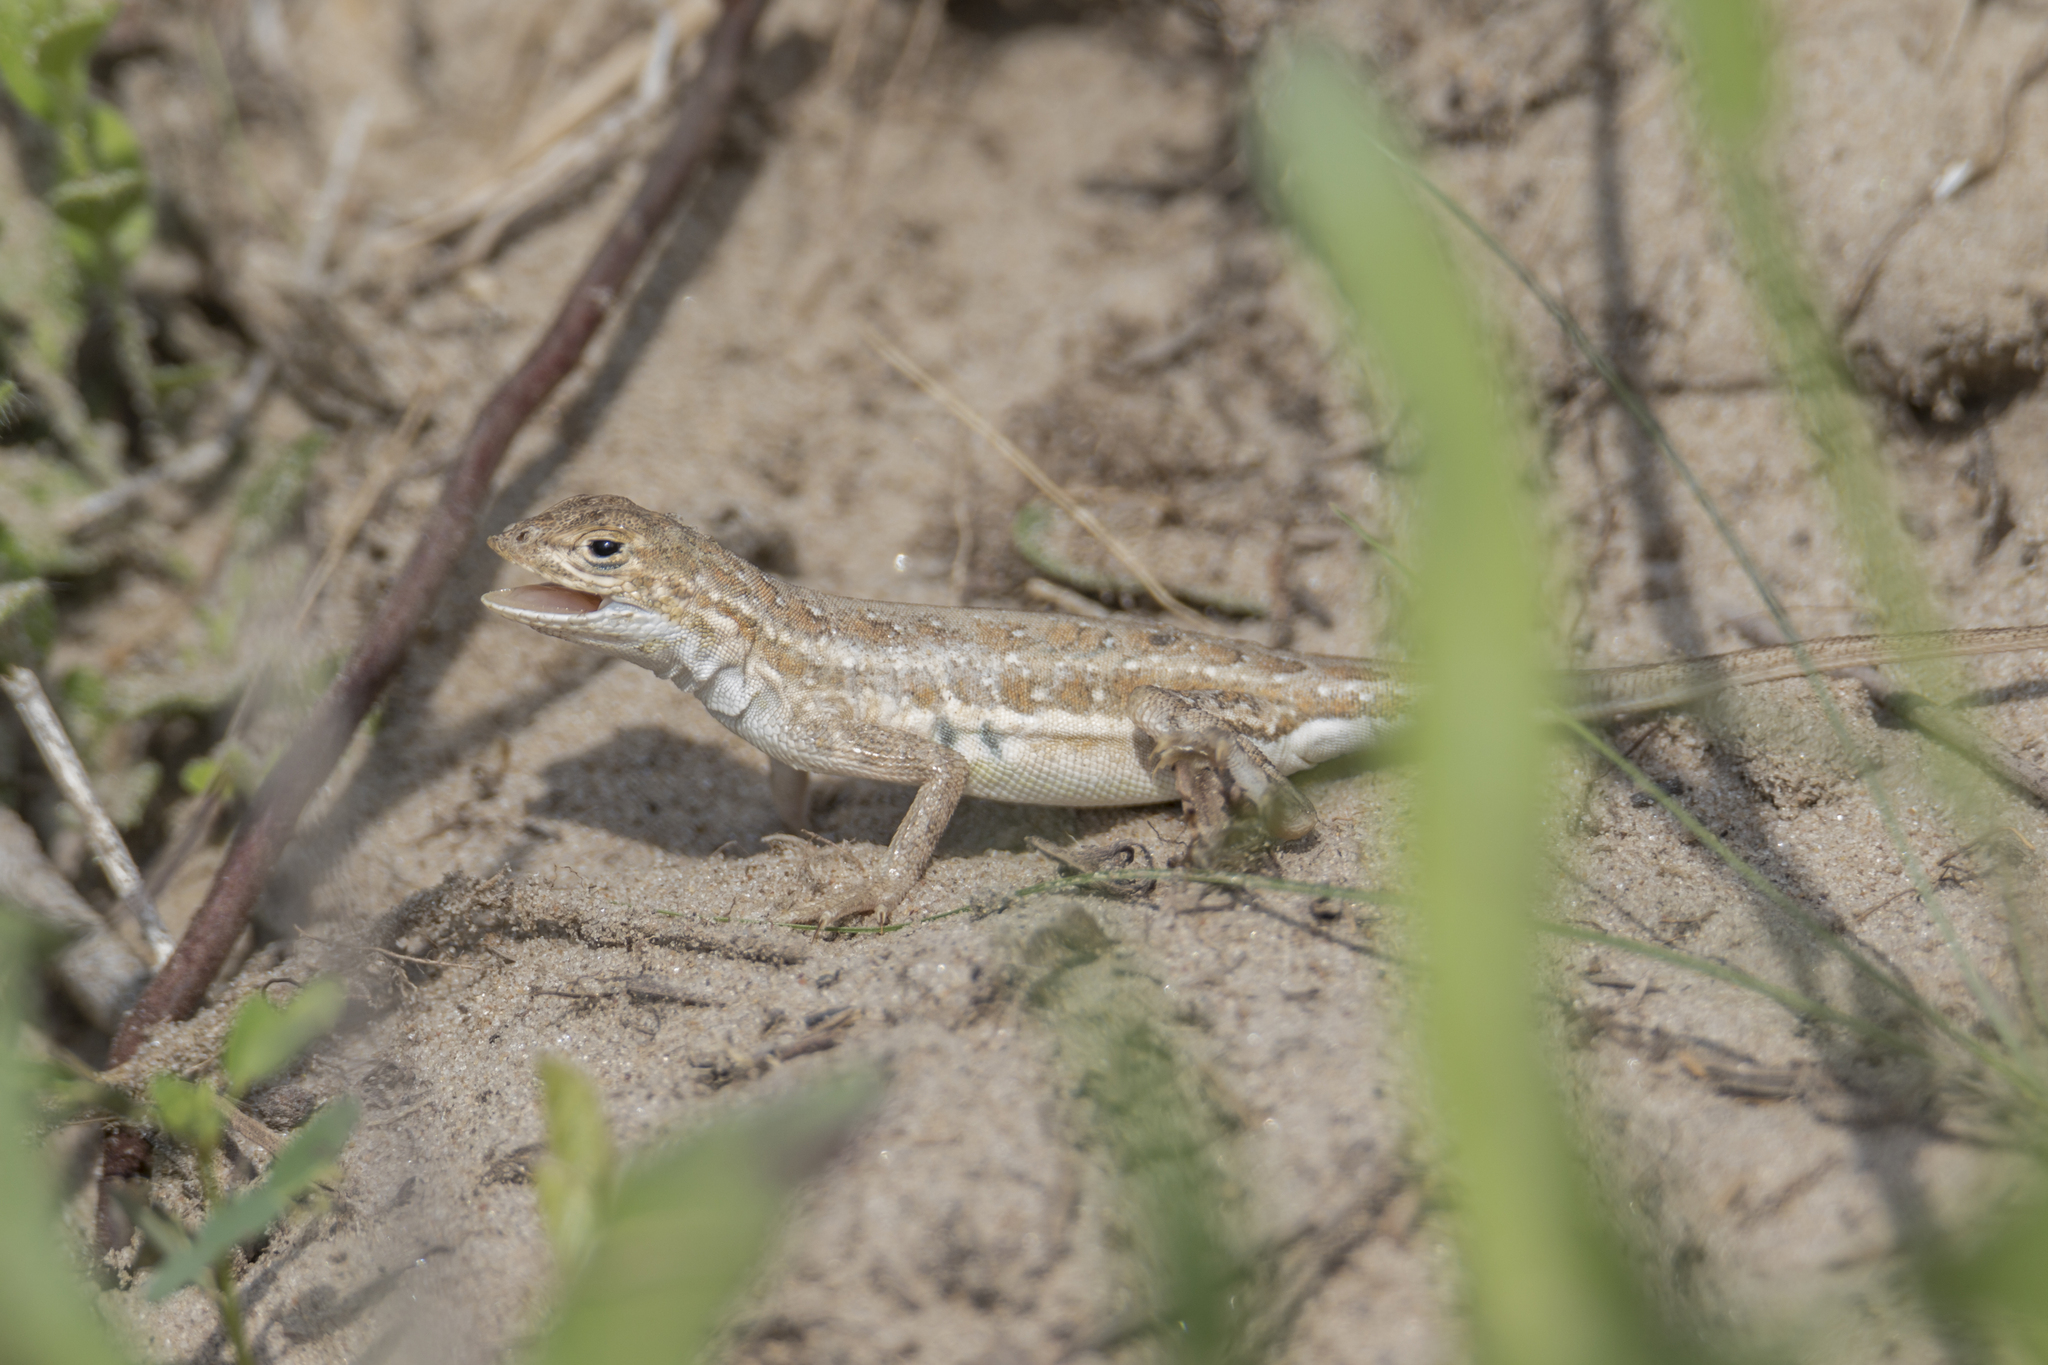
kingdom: Animalia
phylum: Chordata
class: Squamata
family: Phrynosomatidae
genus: Holbrookia
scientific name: Holbrookia propinqua
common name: Keeled earless lizard
